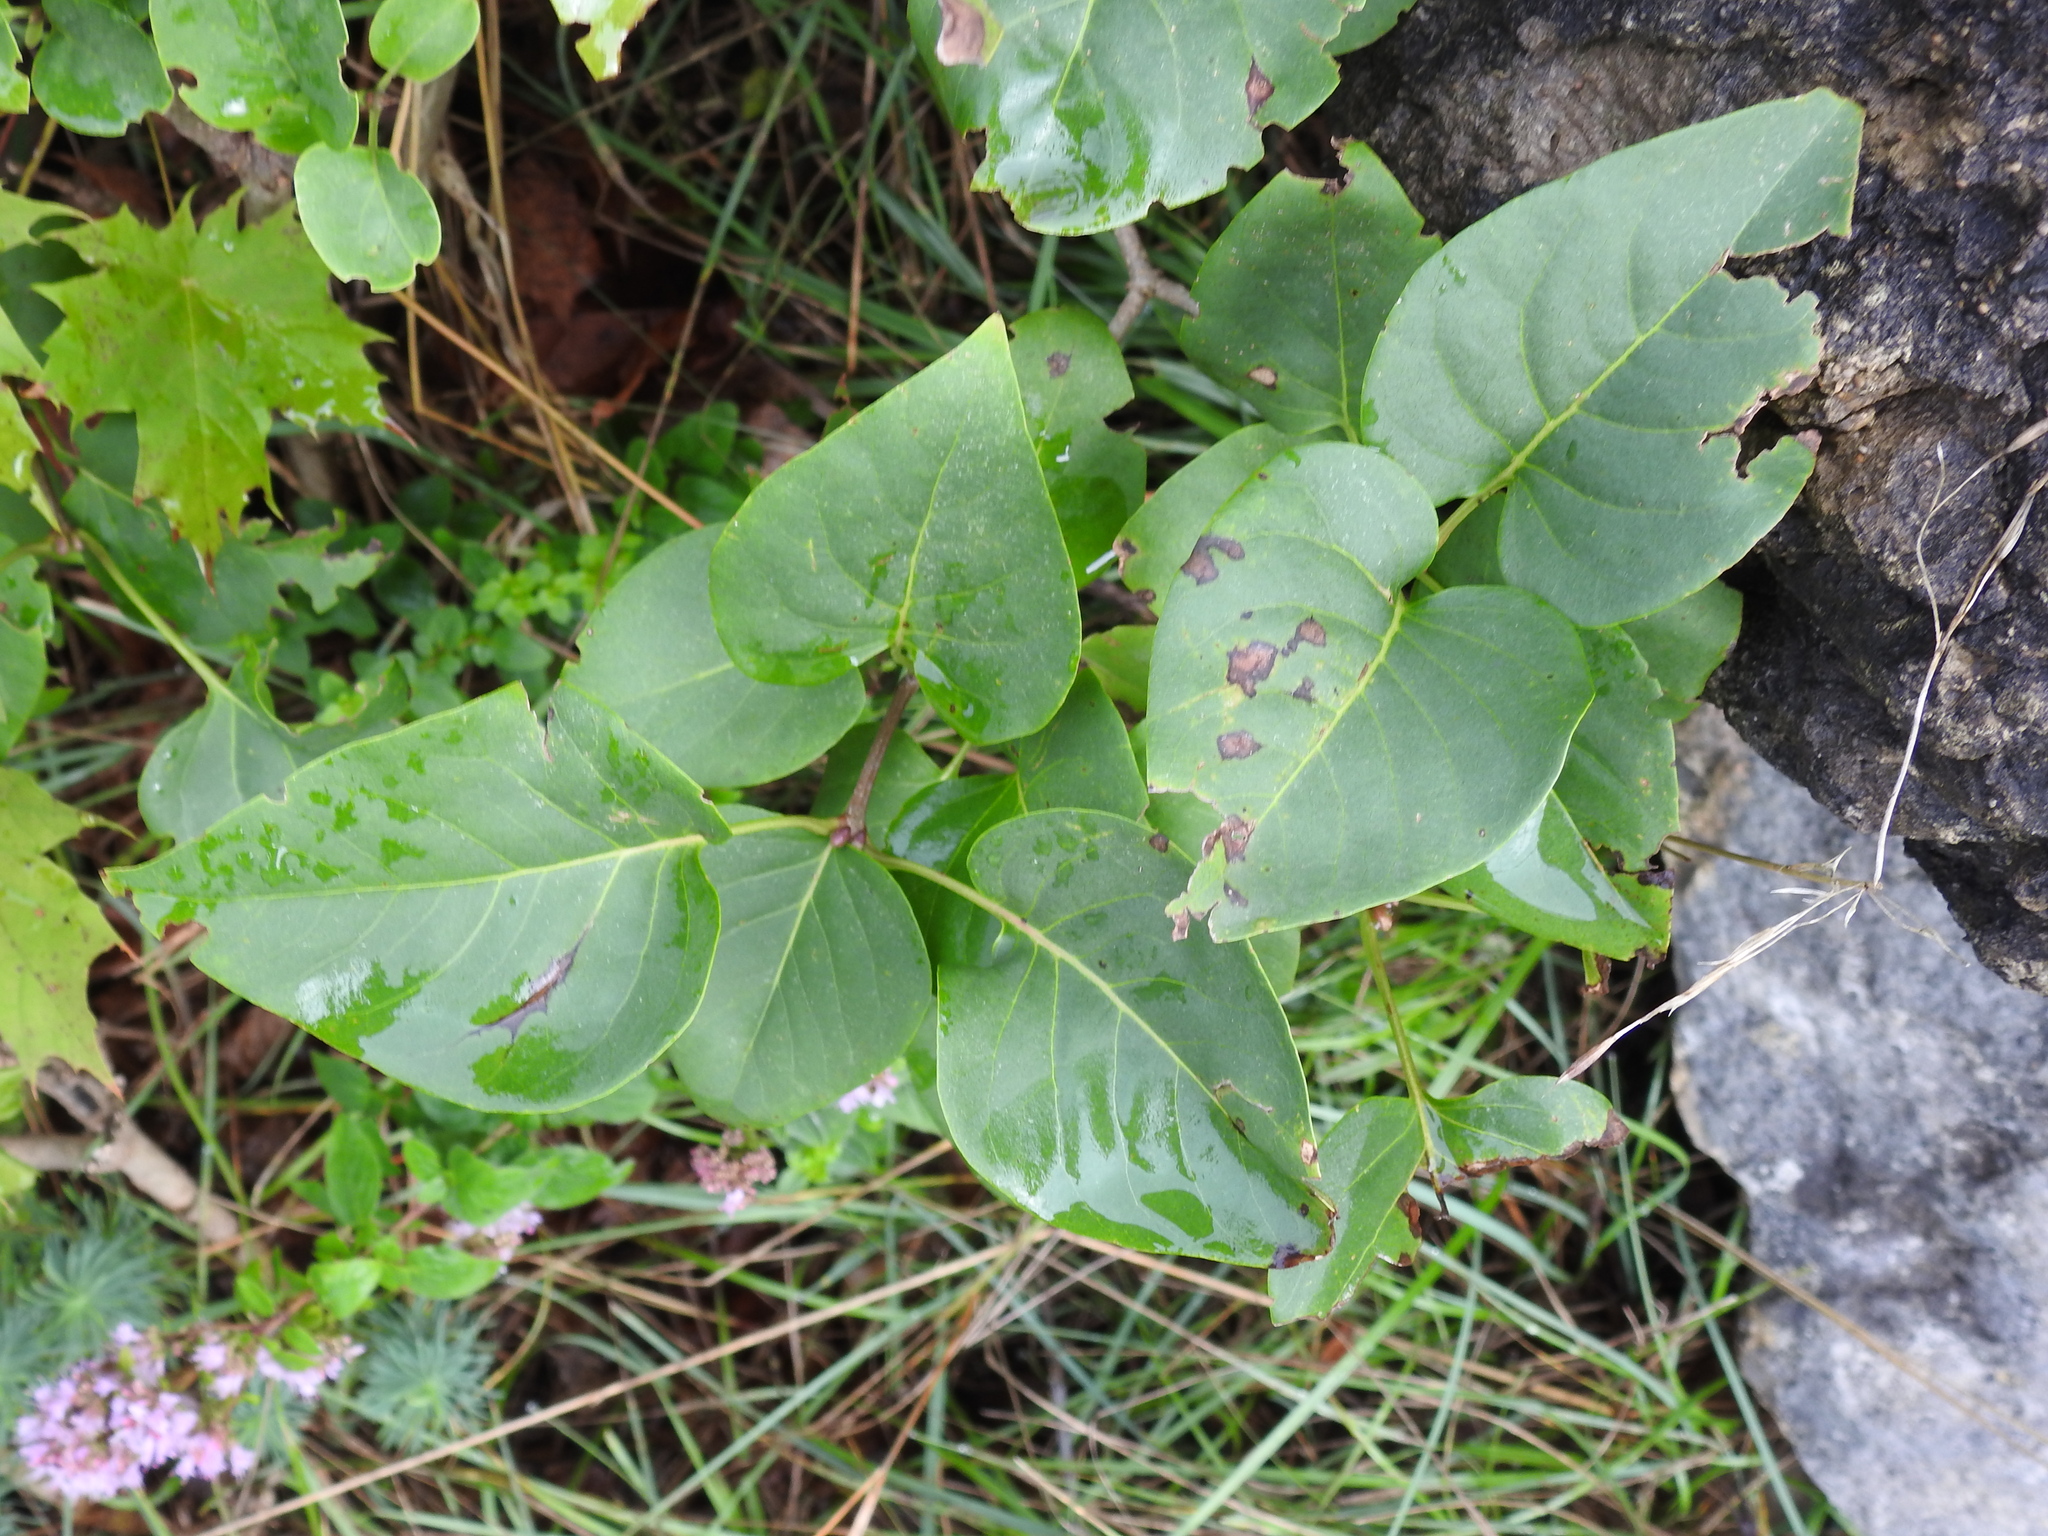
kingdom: Plantae
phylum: Tracheophyta
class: Magnoliopsida
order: Lamiales
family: Oleaceae
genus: Syringa
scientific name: Syringa vulgaris
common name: Common lilac
